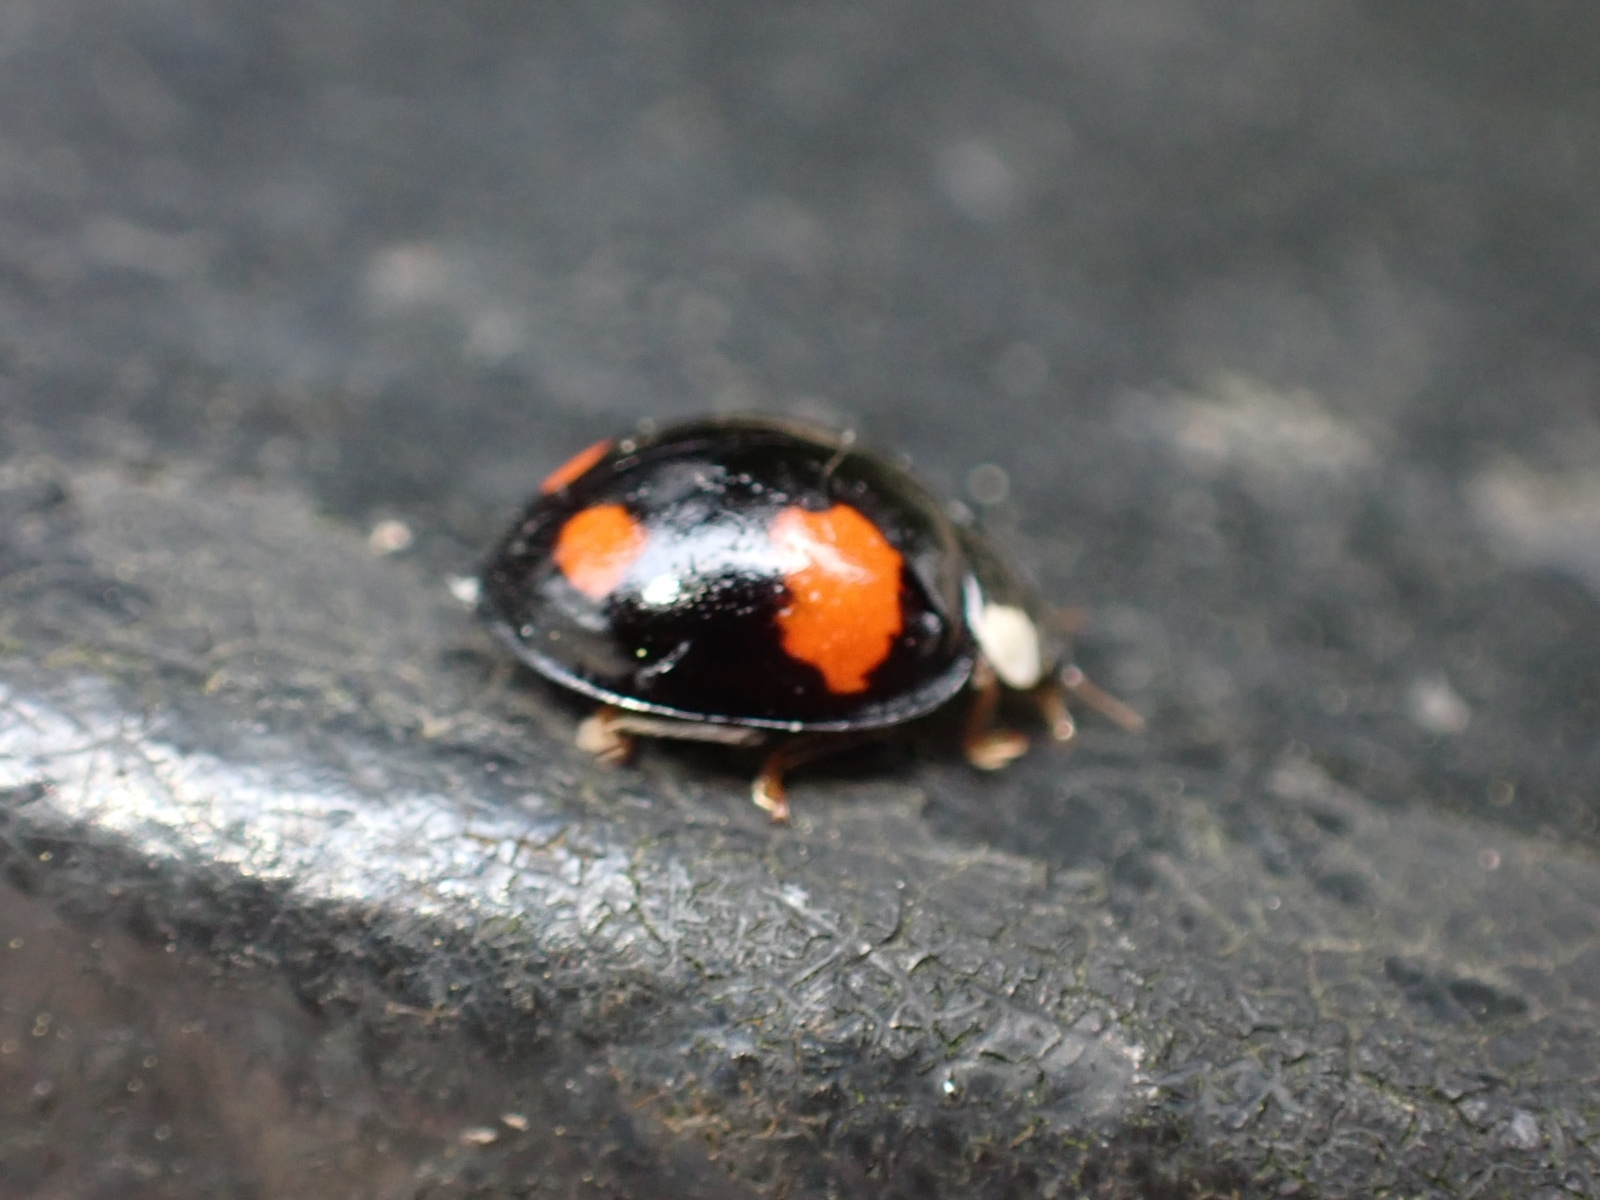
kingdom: Animalia
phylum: Arthropoda
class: Insecta
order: Coleoptera
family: Coccinellidae
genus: Harmonia
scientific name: Harmonia axyridis
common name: Harlequin ladybird
